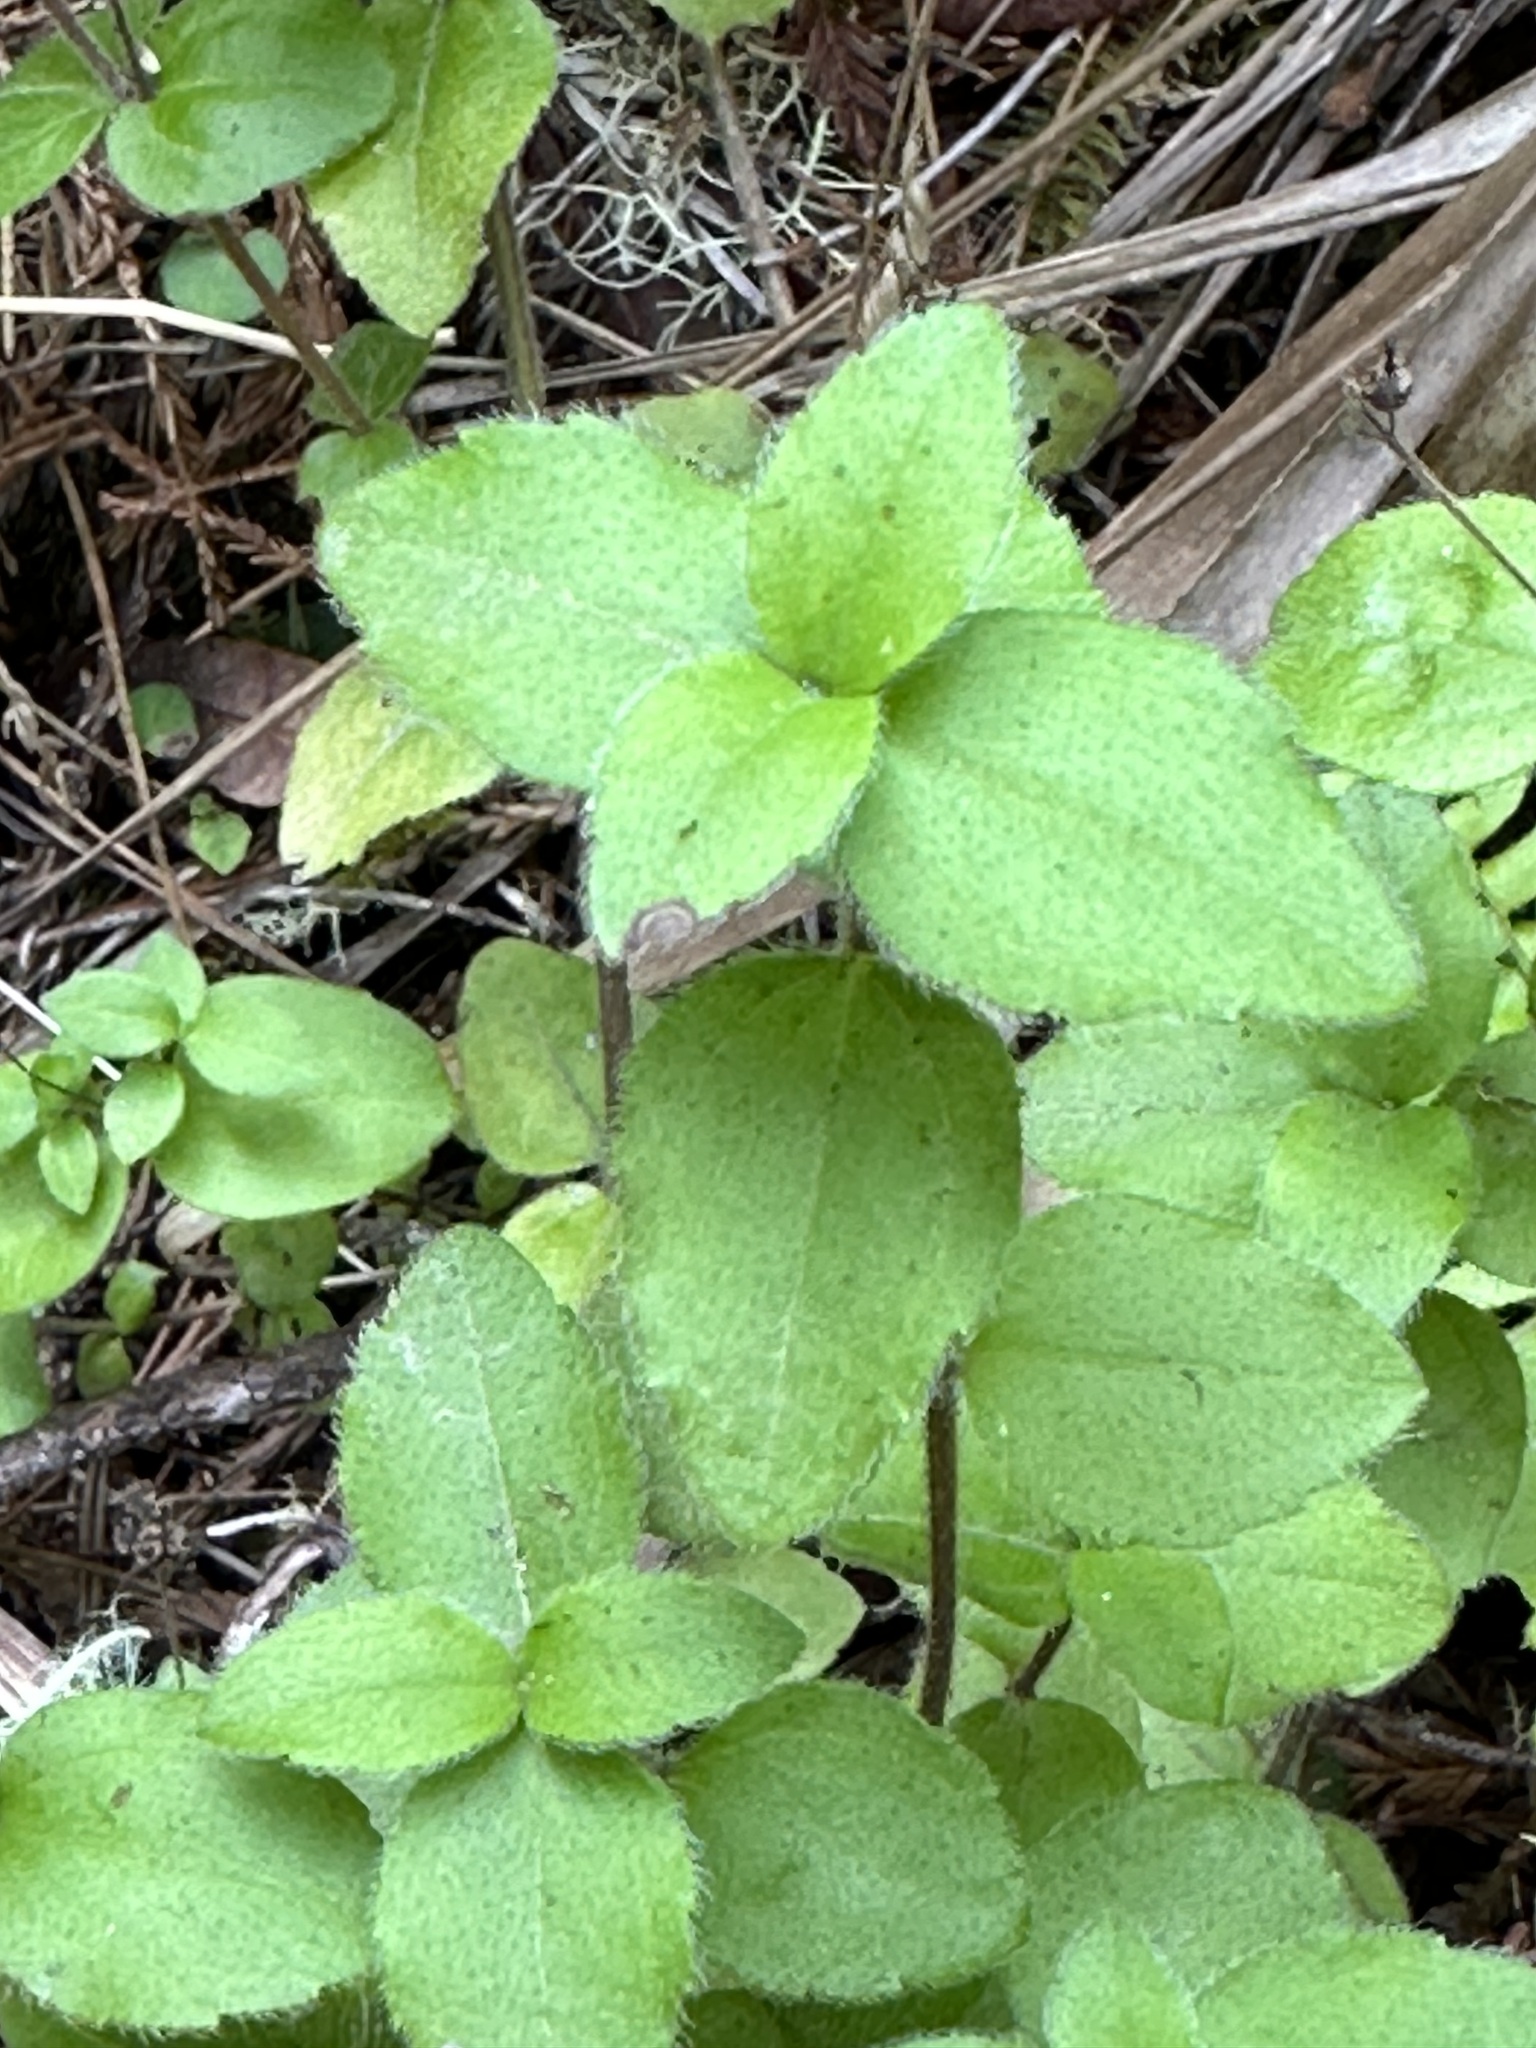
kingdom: Plantae
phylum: Tracheophyta
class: Magnoliopsida
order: Cornales
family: Hydrangeaceae
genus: Whipplea
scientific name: Whipplea modesta
